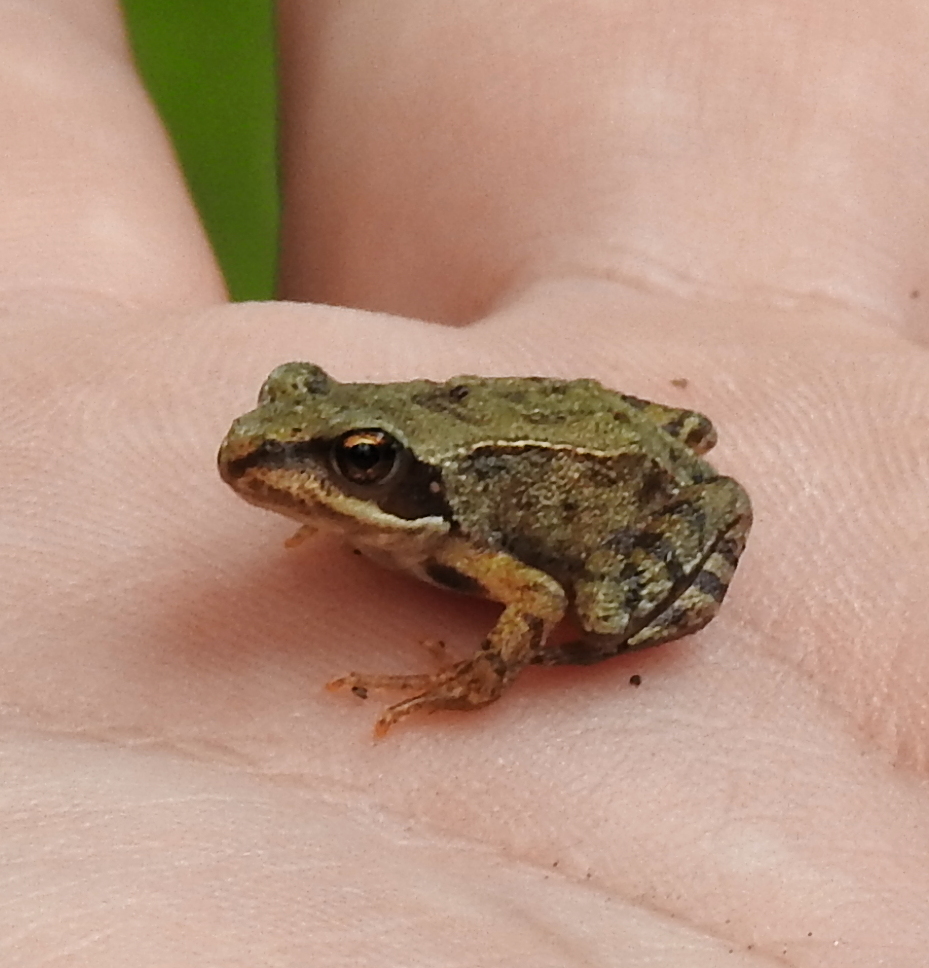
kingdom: Animalia
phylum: Chordata
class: Amphibia
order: Anura
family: Ranidae
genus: Rana
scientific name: Rana temporaria
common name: Common frog
